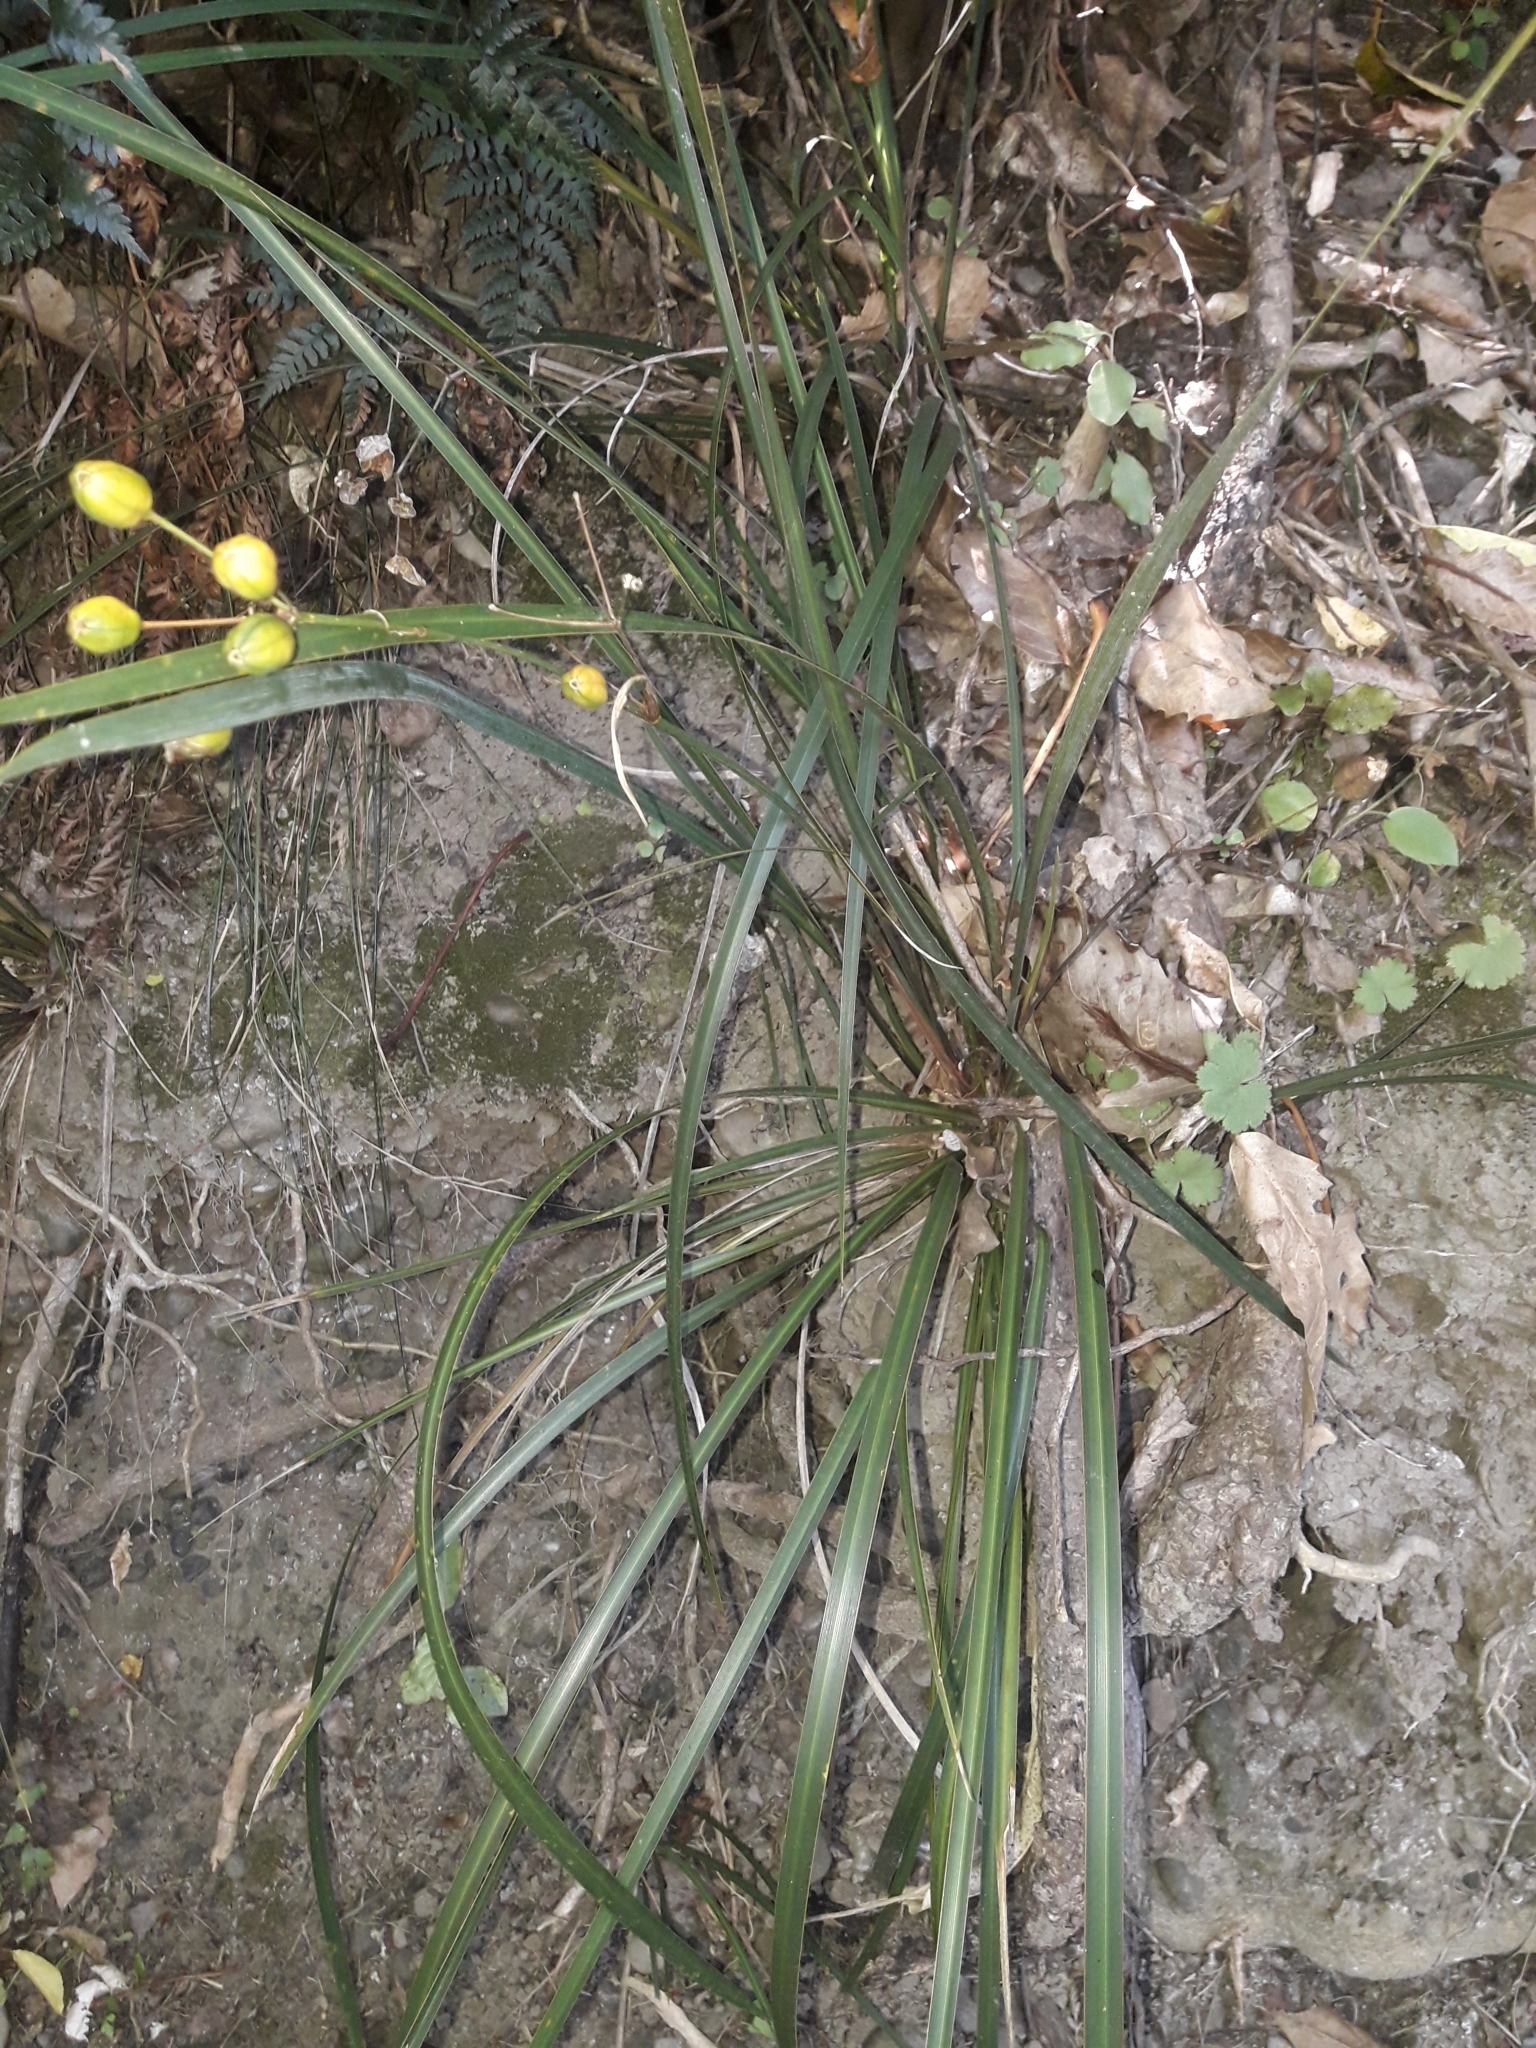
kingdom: Plantae
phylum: Tracheophyta
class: Liliopsida
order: Asparagales
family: Iridaceae
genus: Libertia
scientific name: Libertia ixioides
